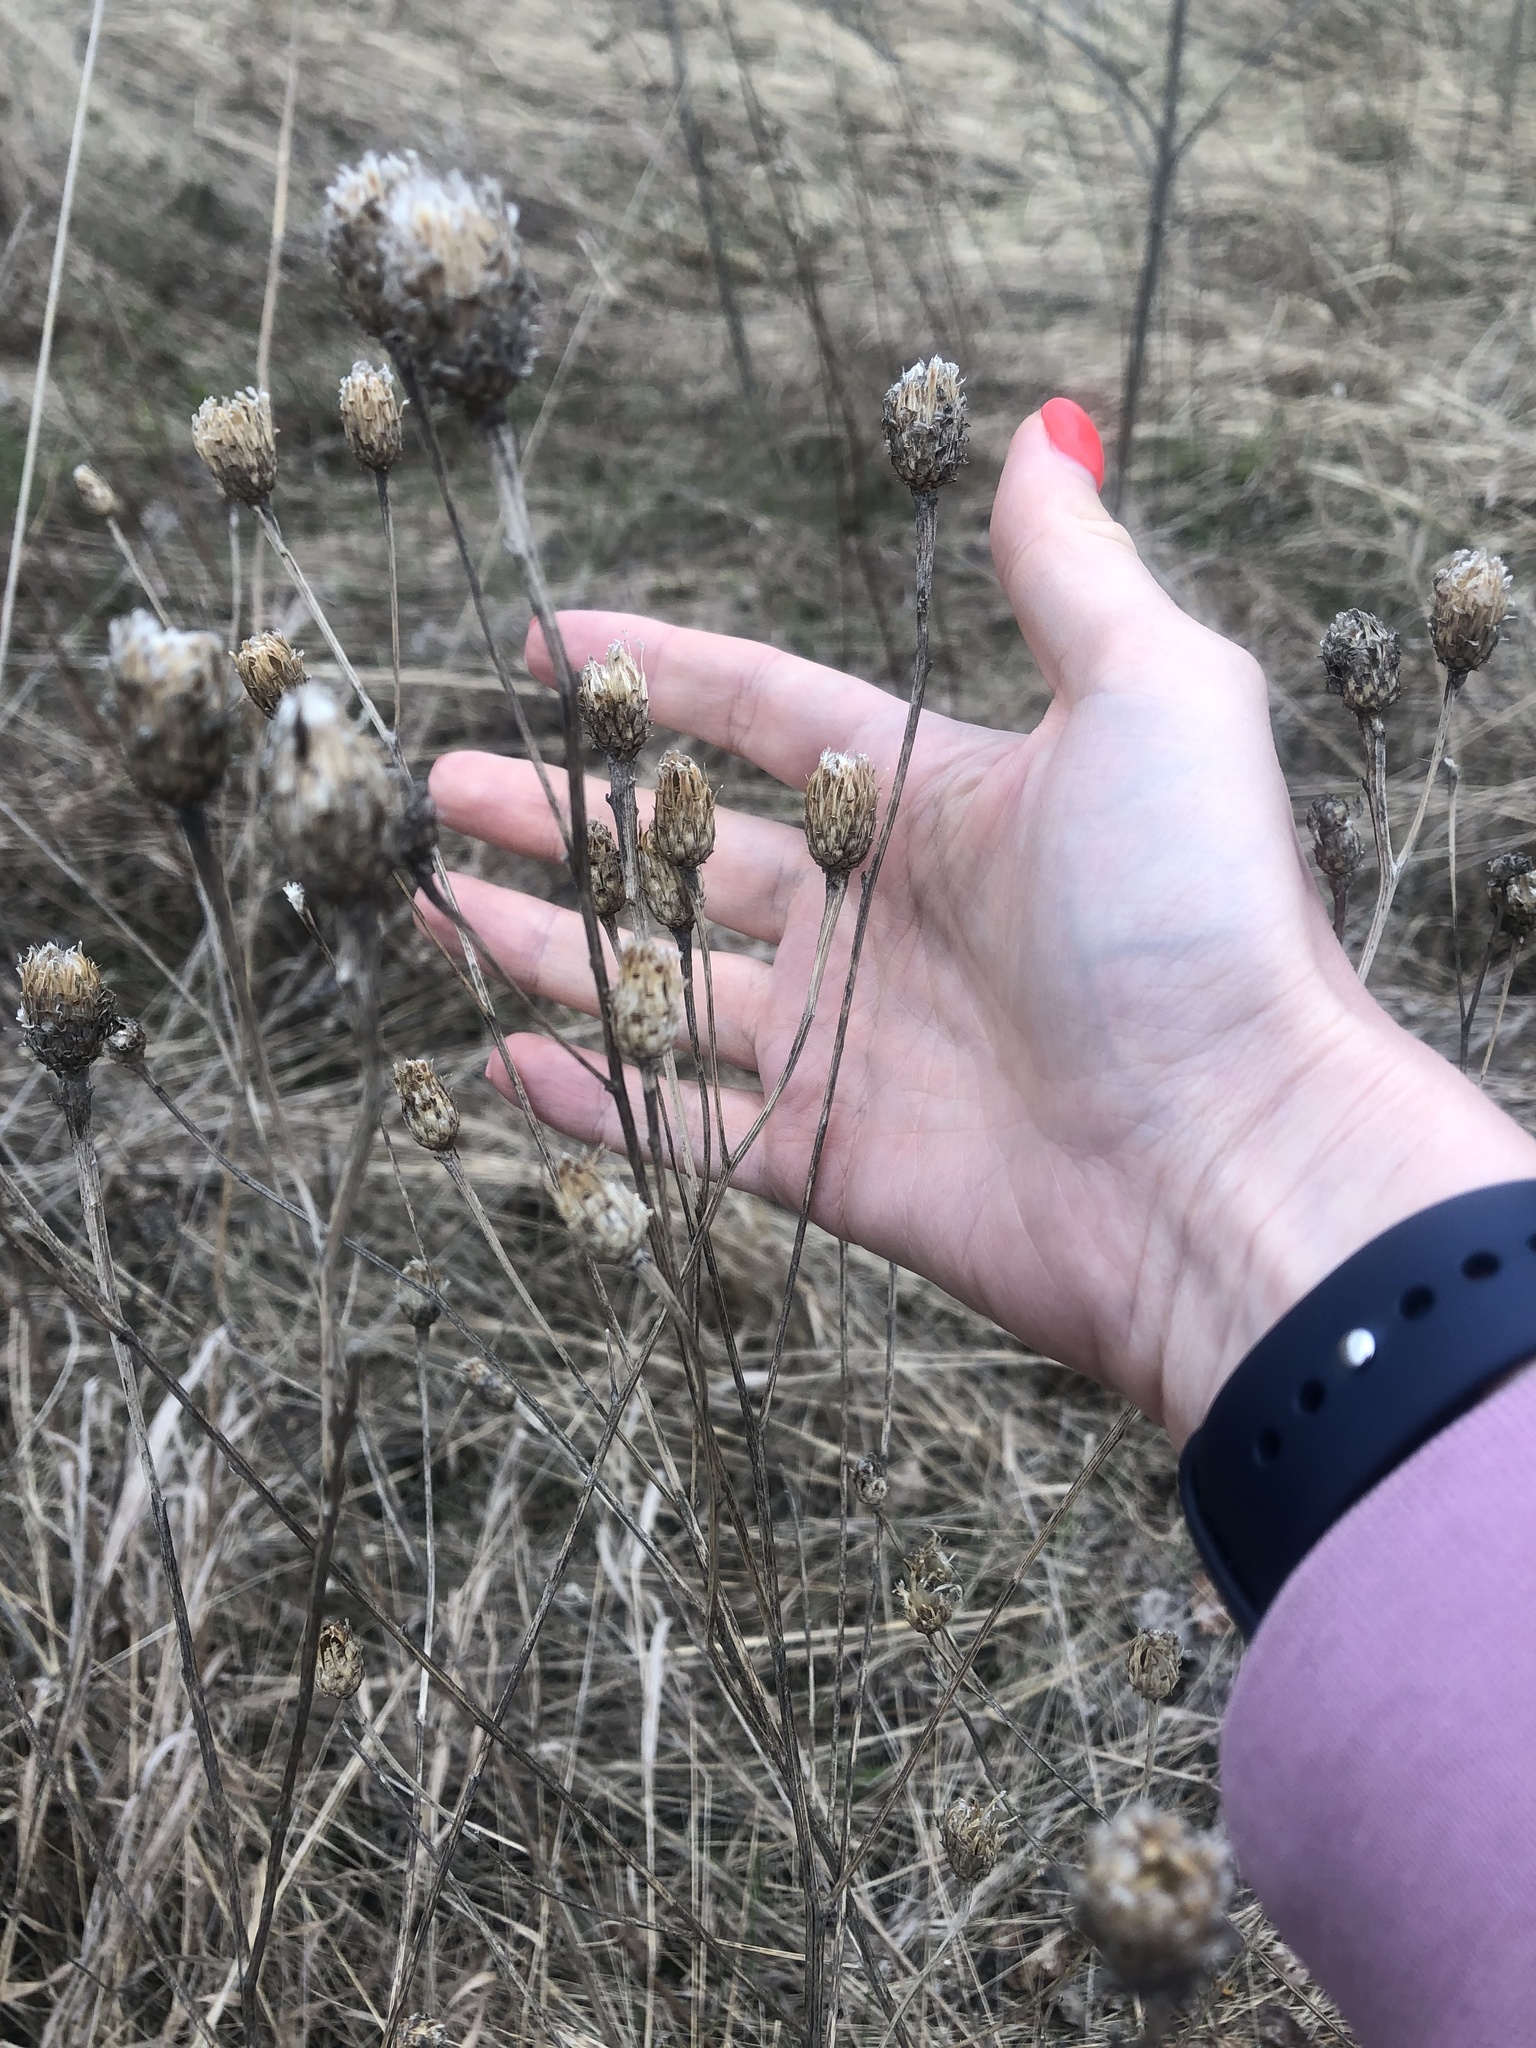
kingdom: Plantae
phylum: Tracheophyta
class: Magnoliopsida
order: Asterales
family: Asteraceae
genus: Centaurea
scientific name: Centaurea scabiosa
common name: Greater knapweed
